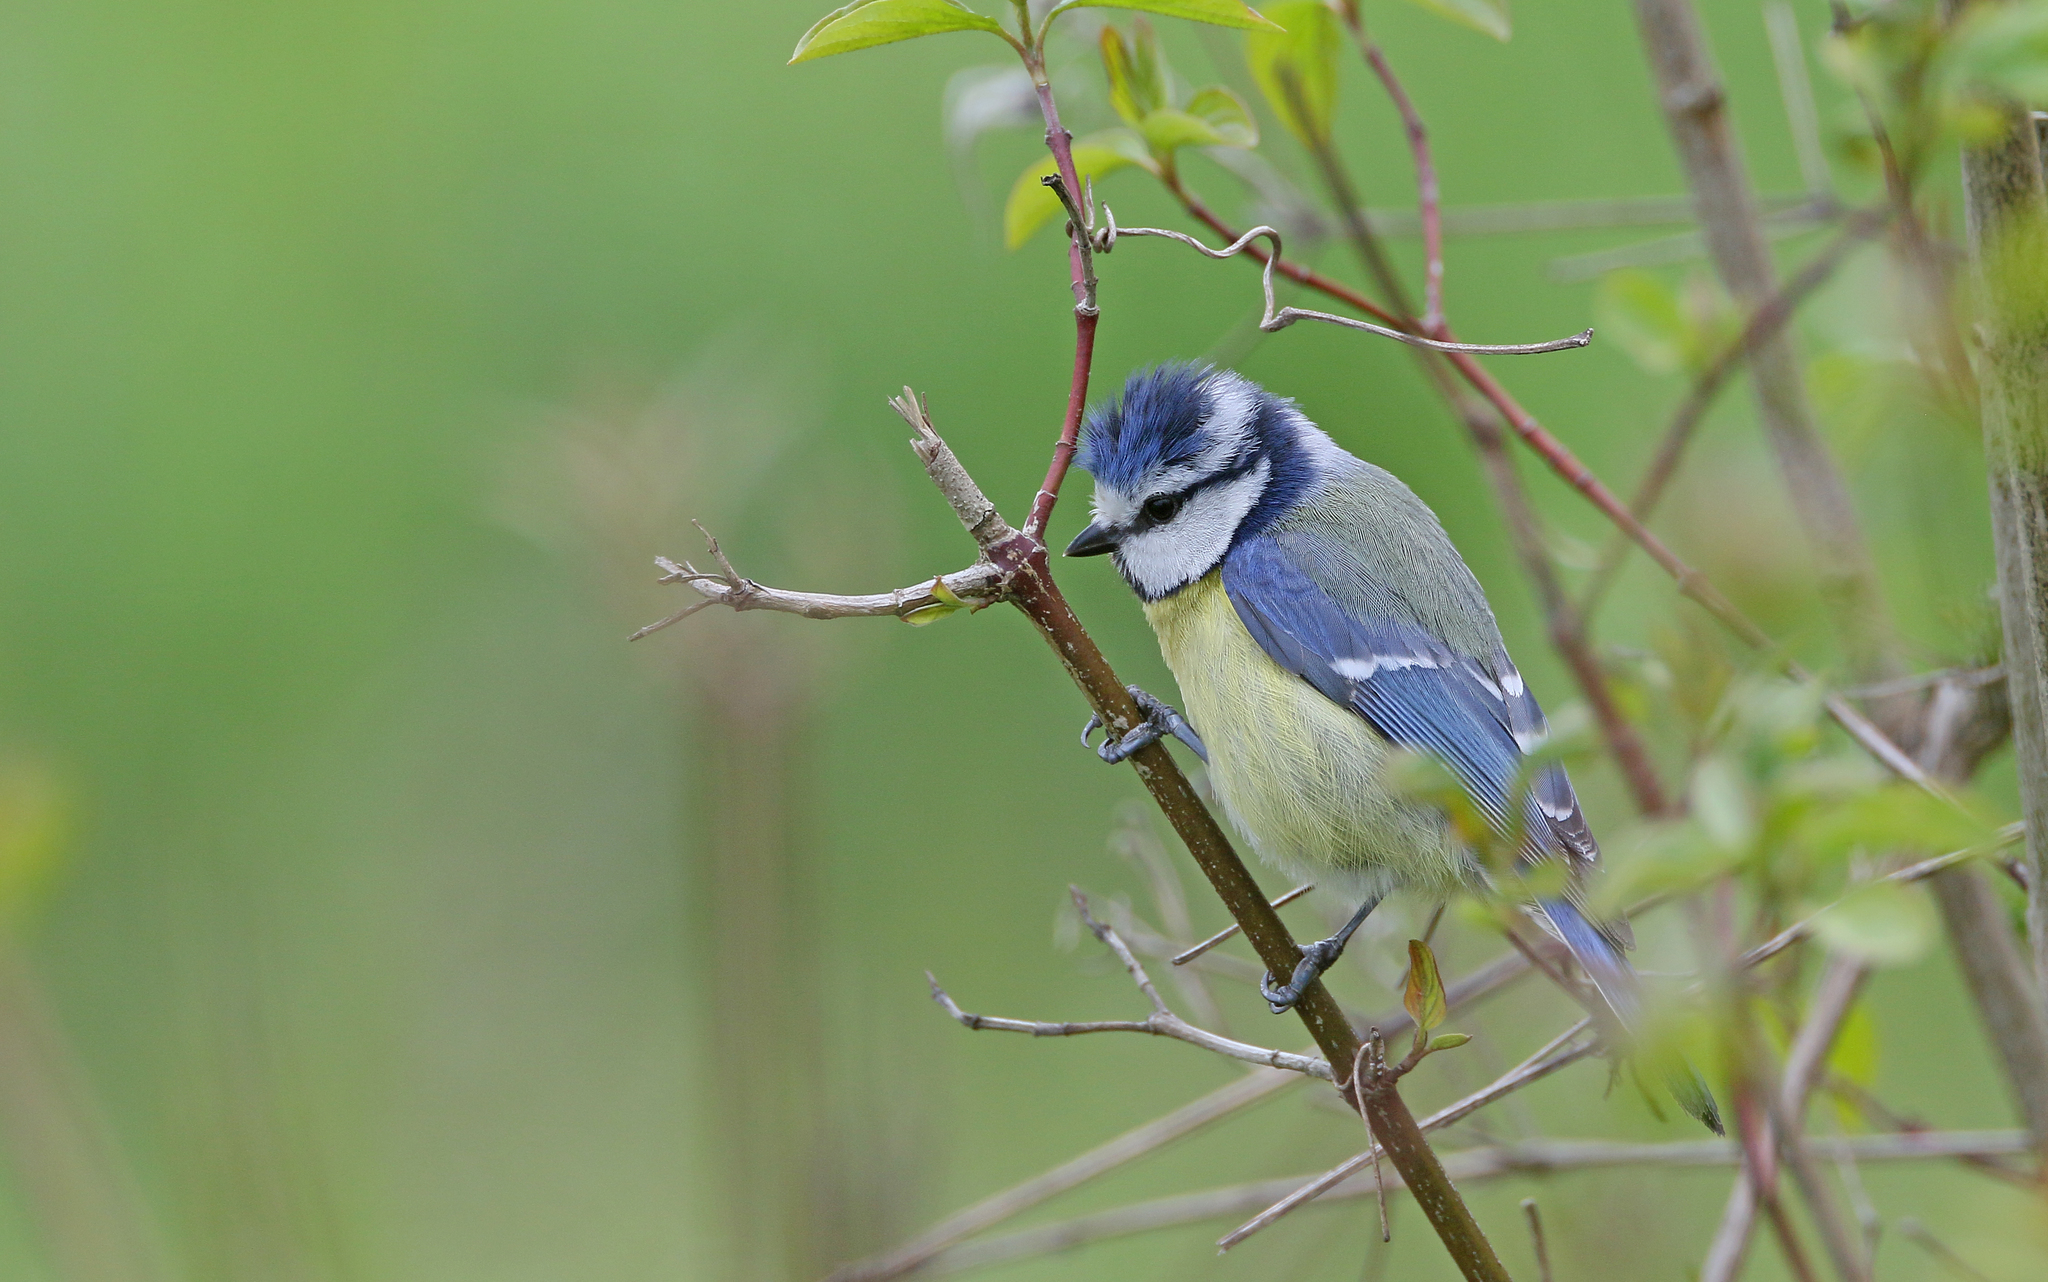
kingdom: Animalia
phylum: Chordata
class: Aves
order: Passeriformes
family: Paridae
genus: Cyanistes
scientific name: Cyanistes caeruleus
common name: Eurasian blue tit
